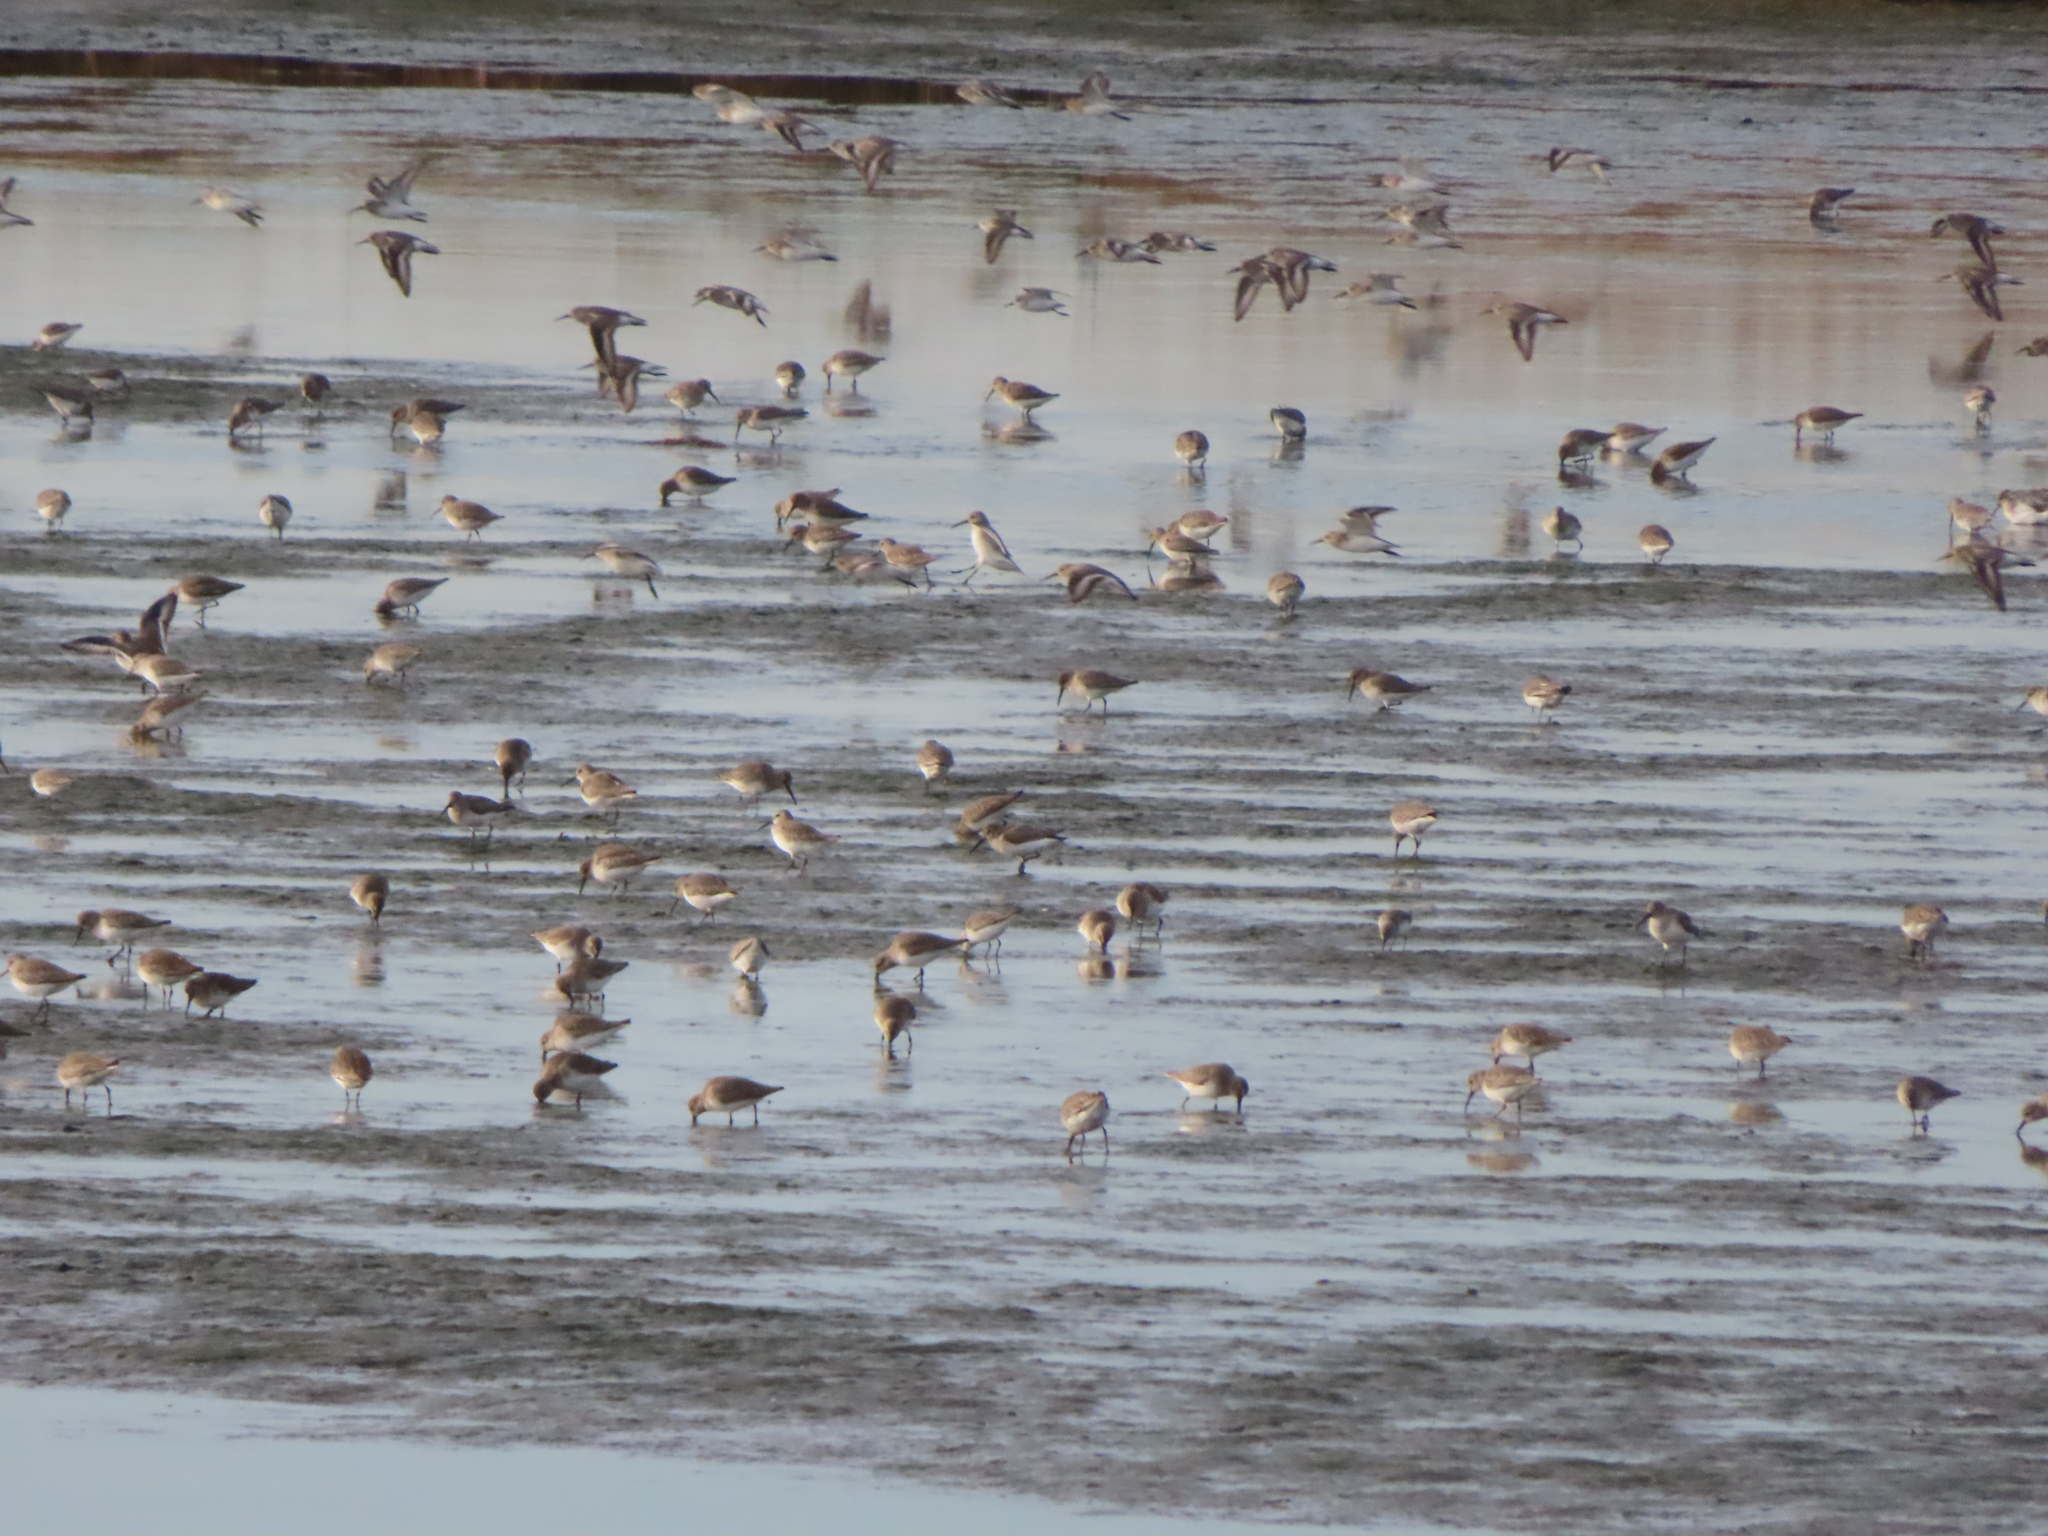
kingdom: Animalia
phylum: Chordata
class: Aves
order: Charadriiformes
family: Scolopacidae
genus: Calidris
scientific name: Calidris alpina
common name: Dunlin
